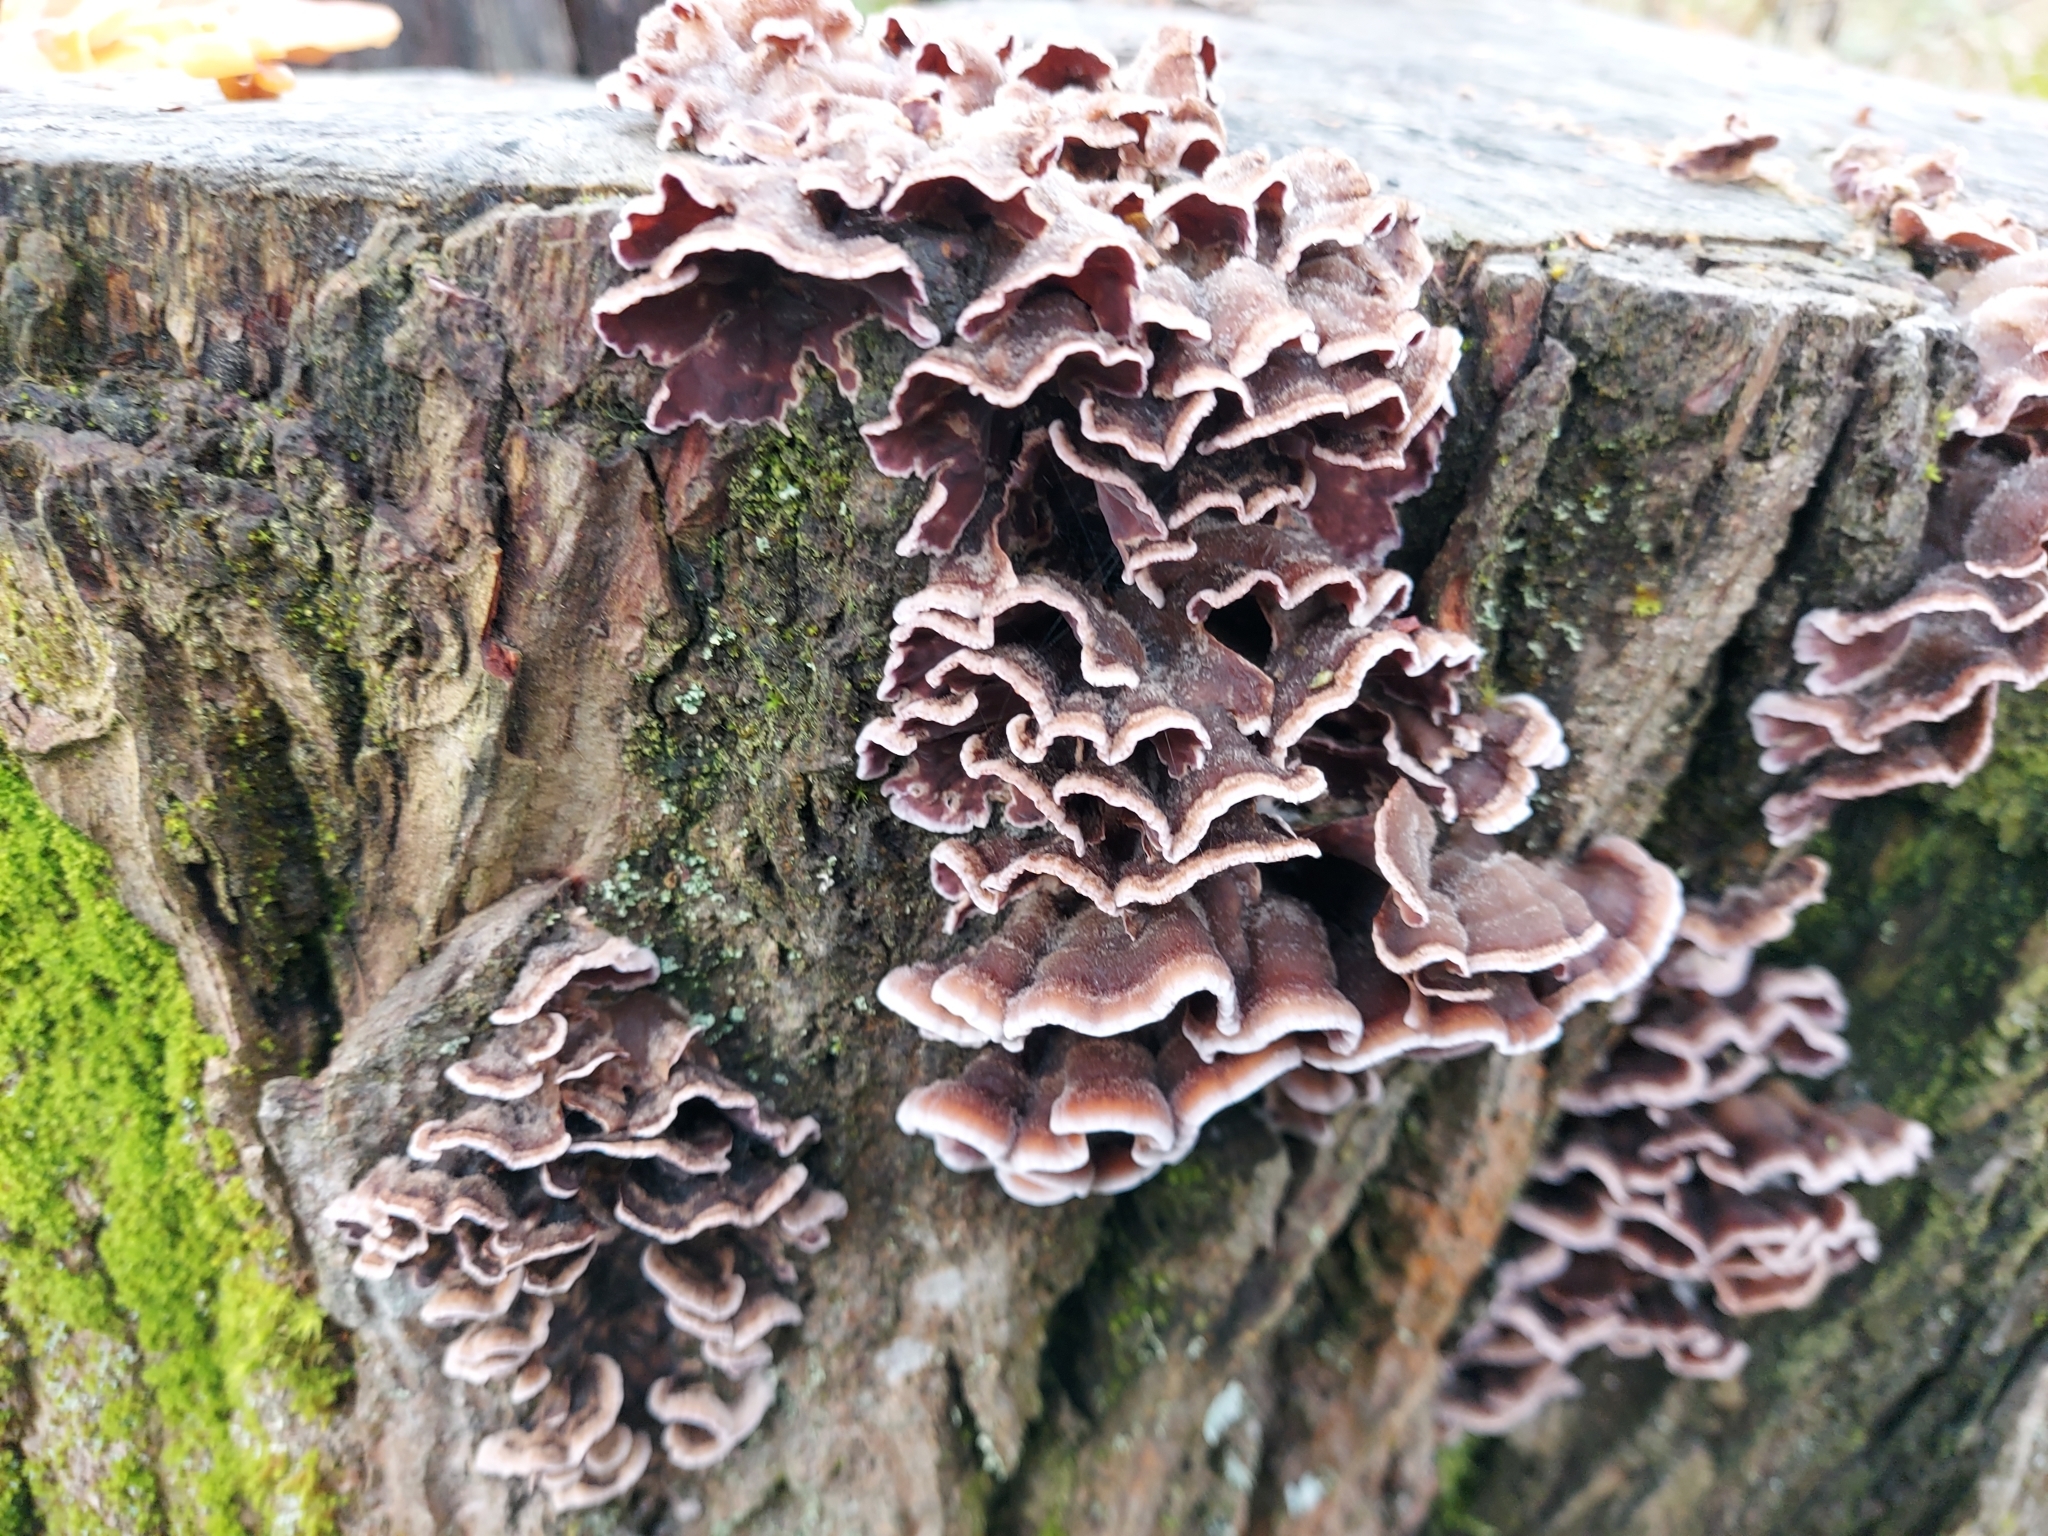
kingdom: Fungi
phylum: Basidiomycota
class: Agaricomycetes
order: Agaricales
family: Cyphellaceae
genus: Chondrostereum
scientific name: Chondrostereum purpureum
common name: Silver leaf disease
